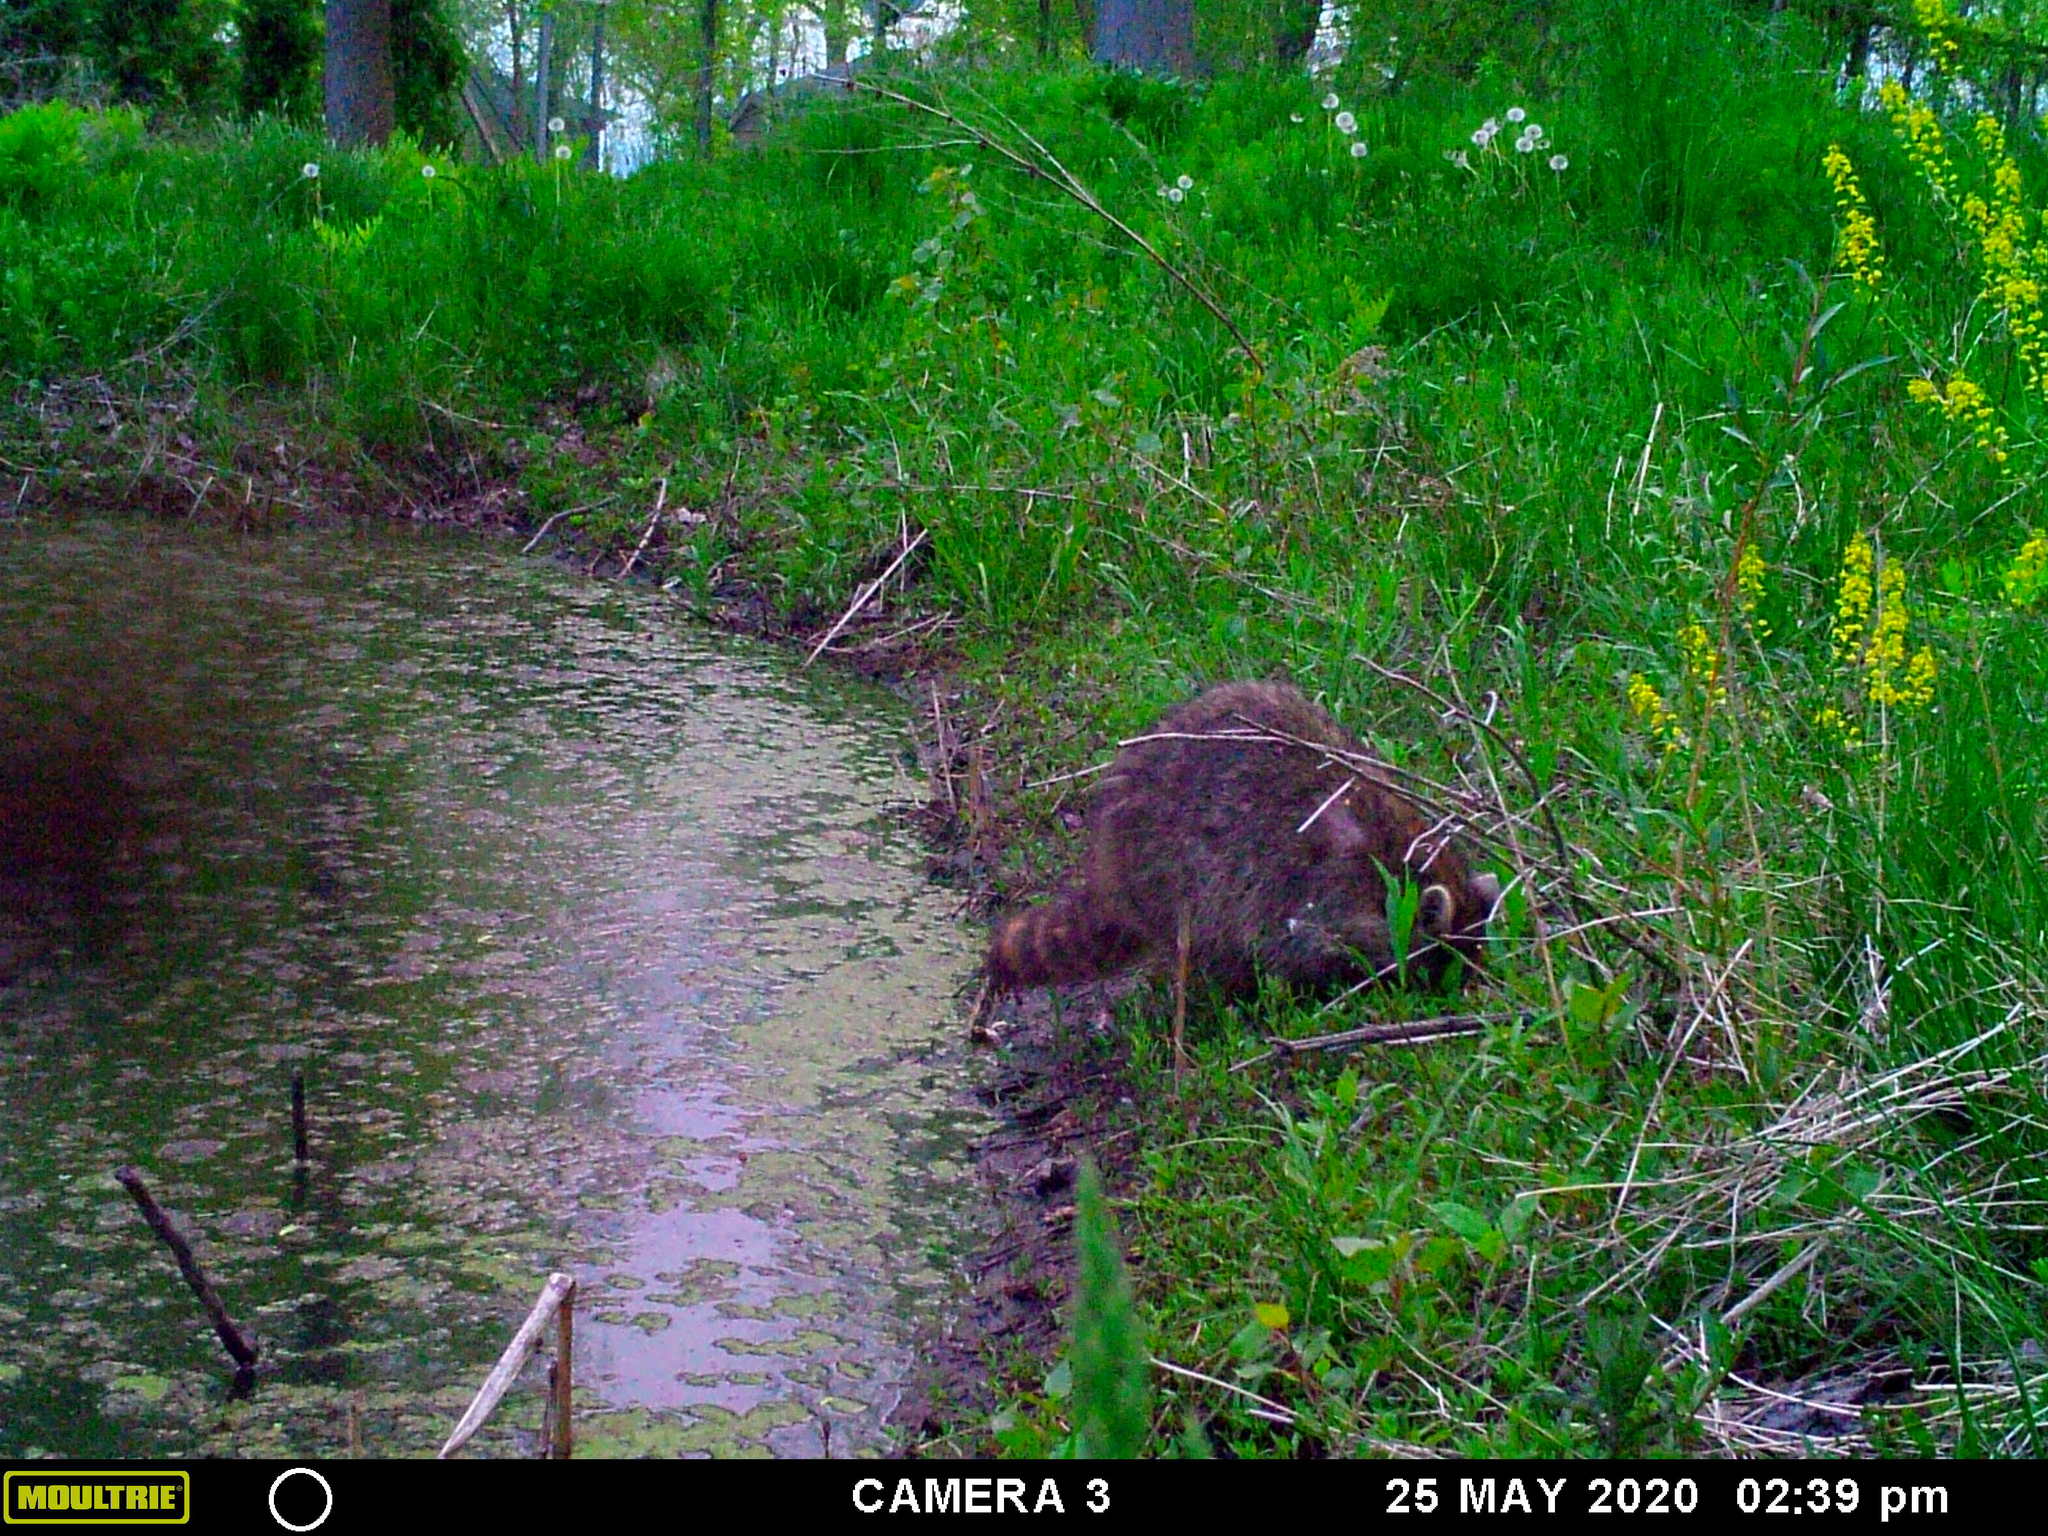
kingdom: Animalia
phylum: Chordata
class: Mammalia
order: Carnivora
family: Procyonidae
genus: Procyon
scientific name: Procyon lotor
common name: Raccoon
